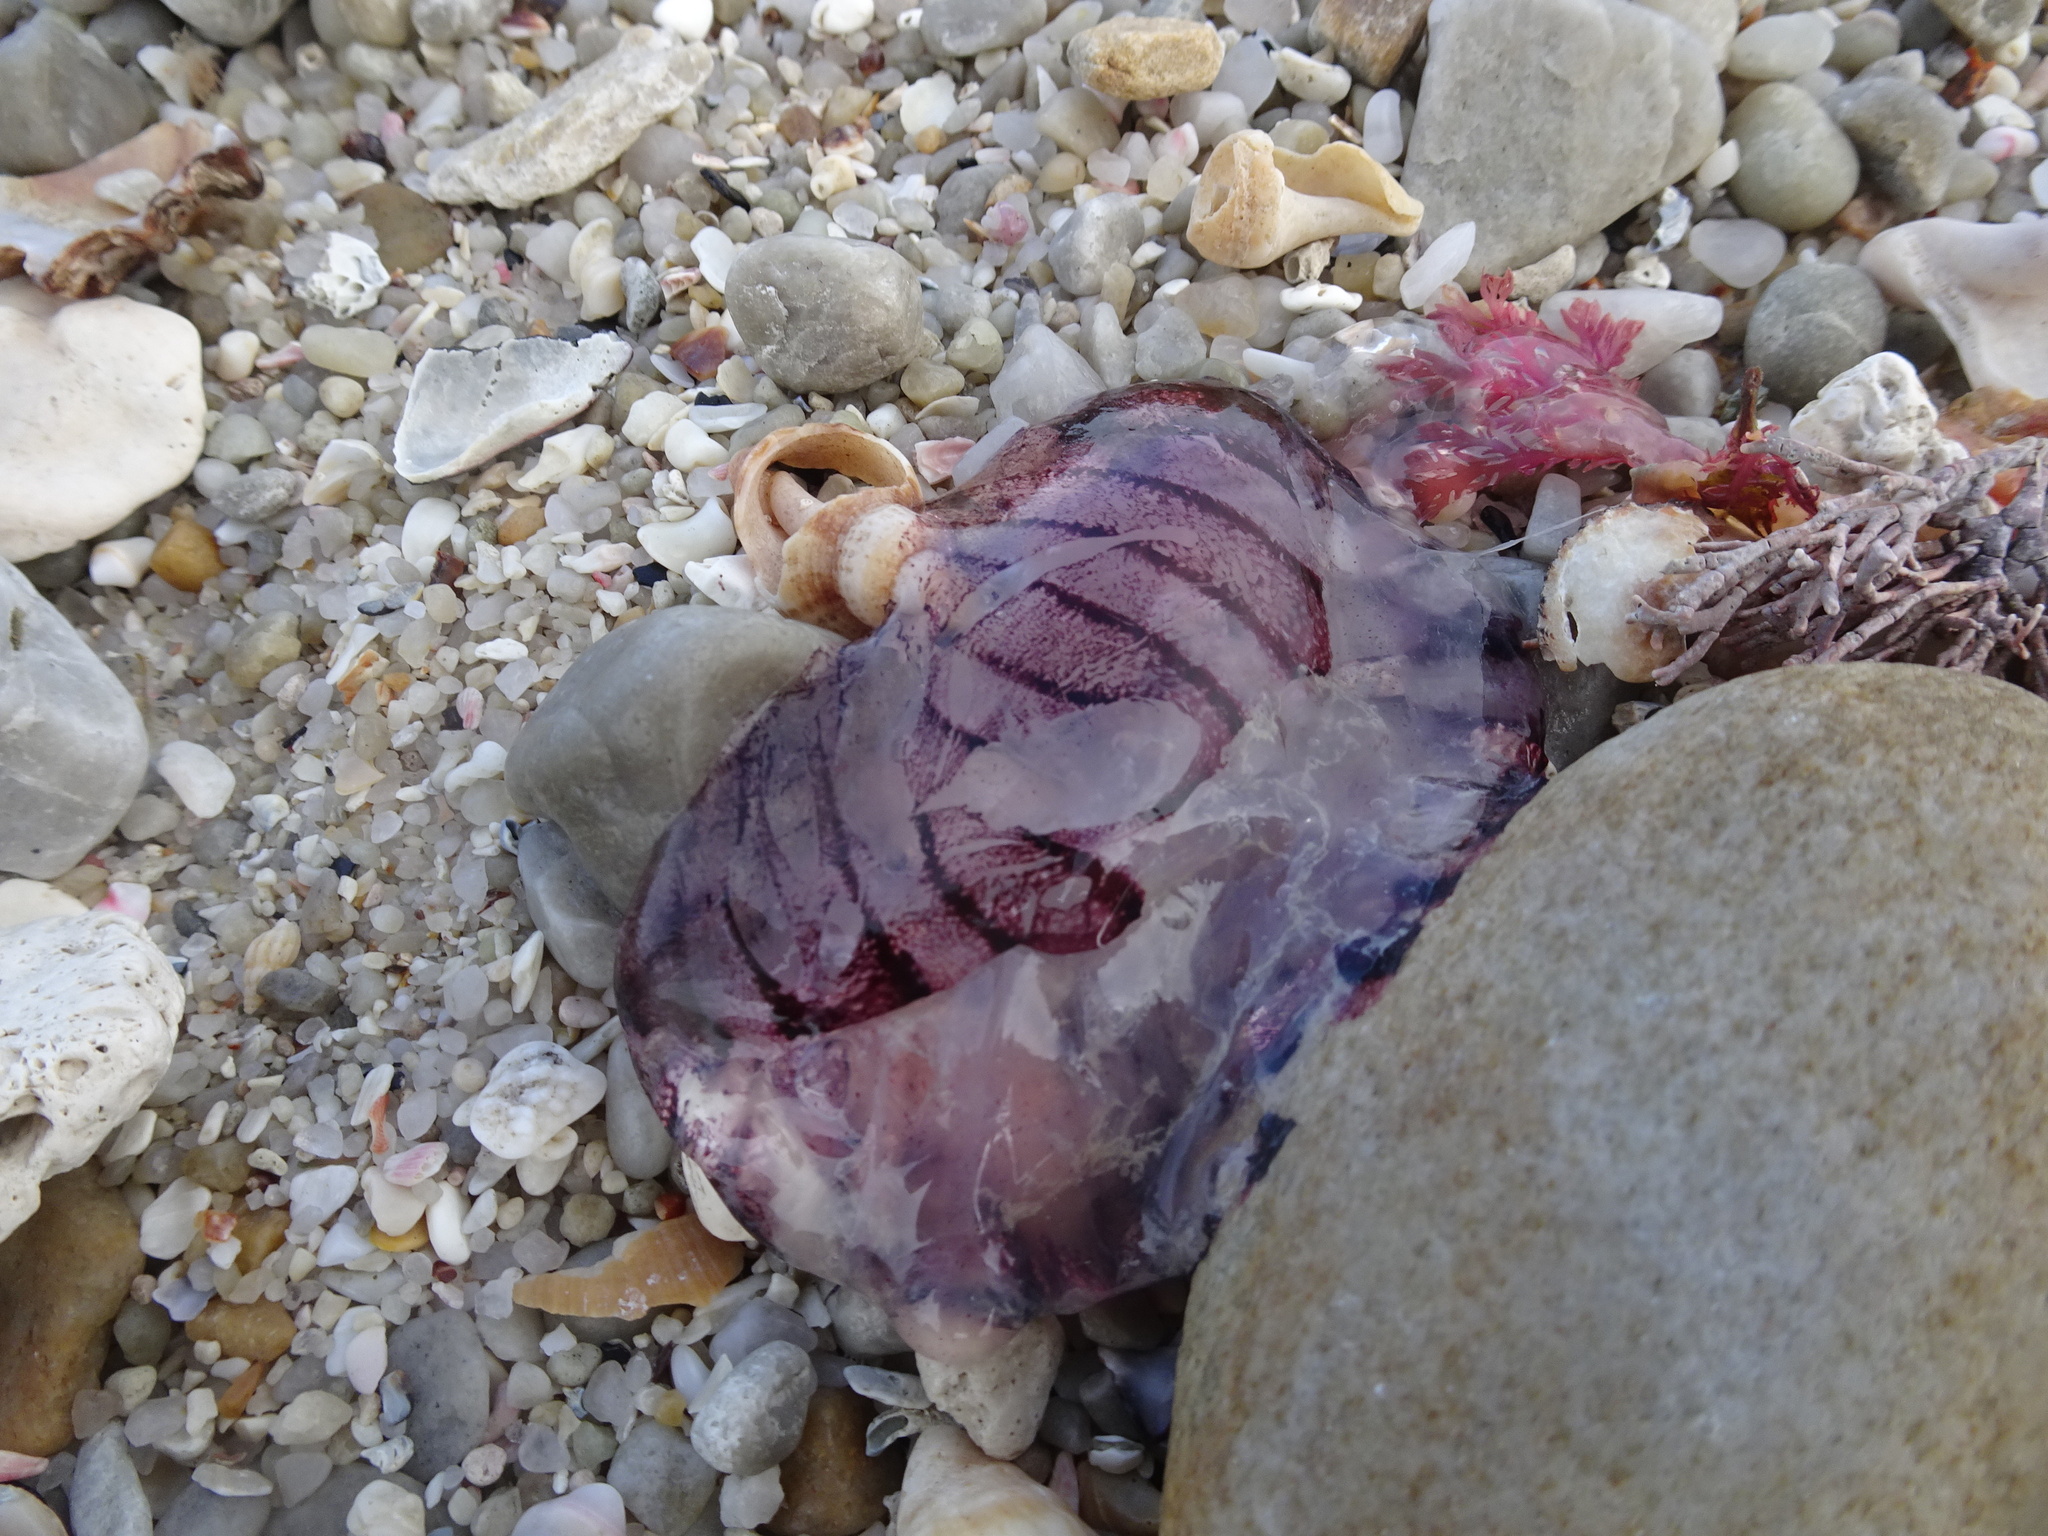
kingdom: Animalia
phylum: Cnidaria
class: Scyphozoa
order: Semaeostomeae
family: Pelagiidae
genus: Chrysaora
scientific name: Chrysaora agulhensis
